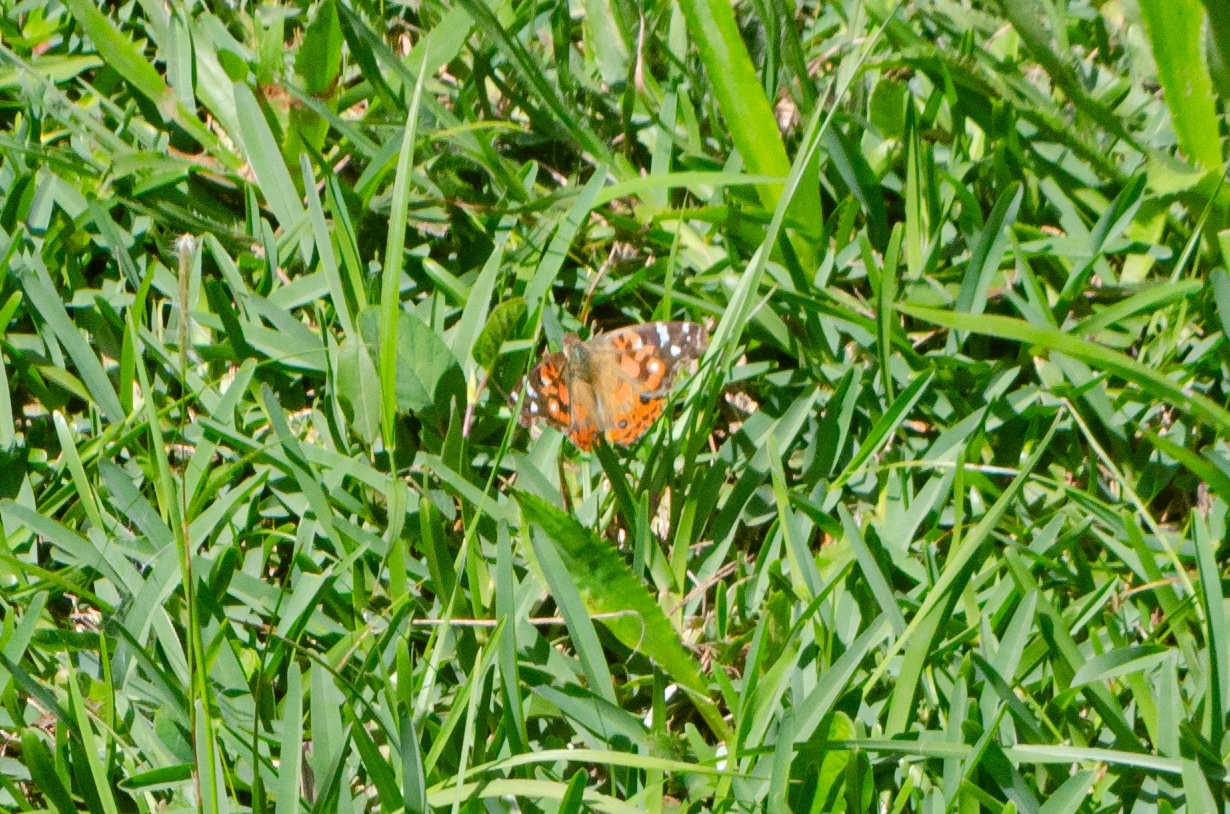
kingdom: Animalia
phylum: Arthropoda
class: Insecta
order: Lepidoptera
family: Nymphalidae
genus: Vanessa
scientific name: Vanessa braziliensis
